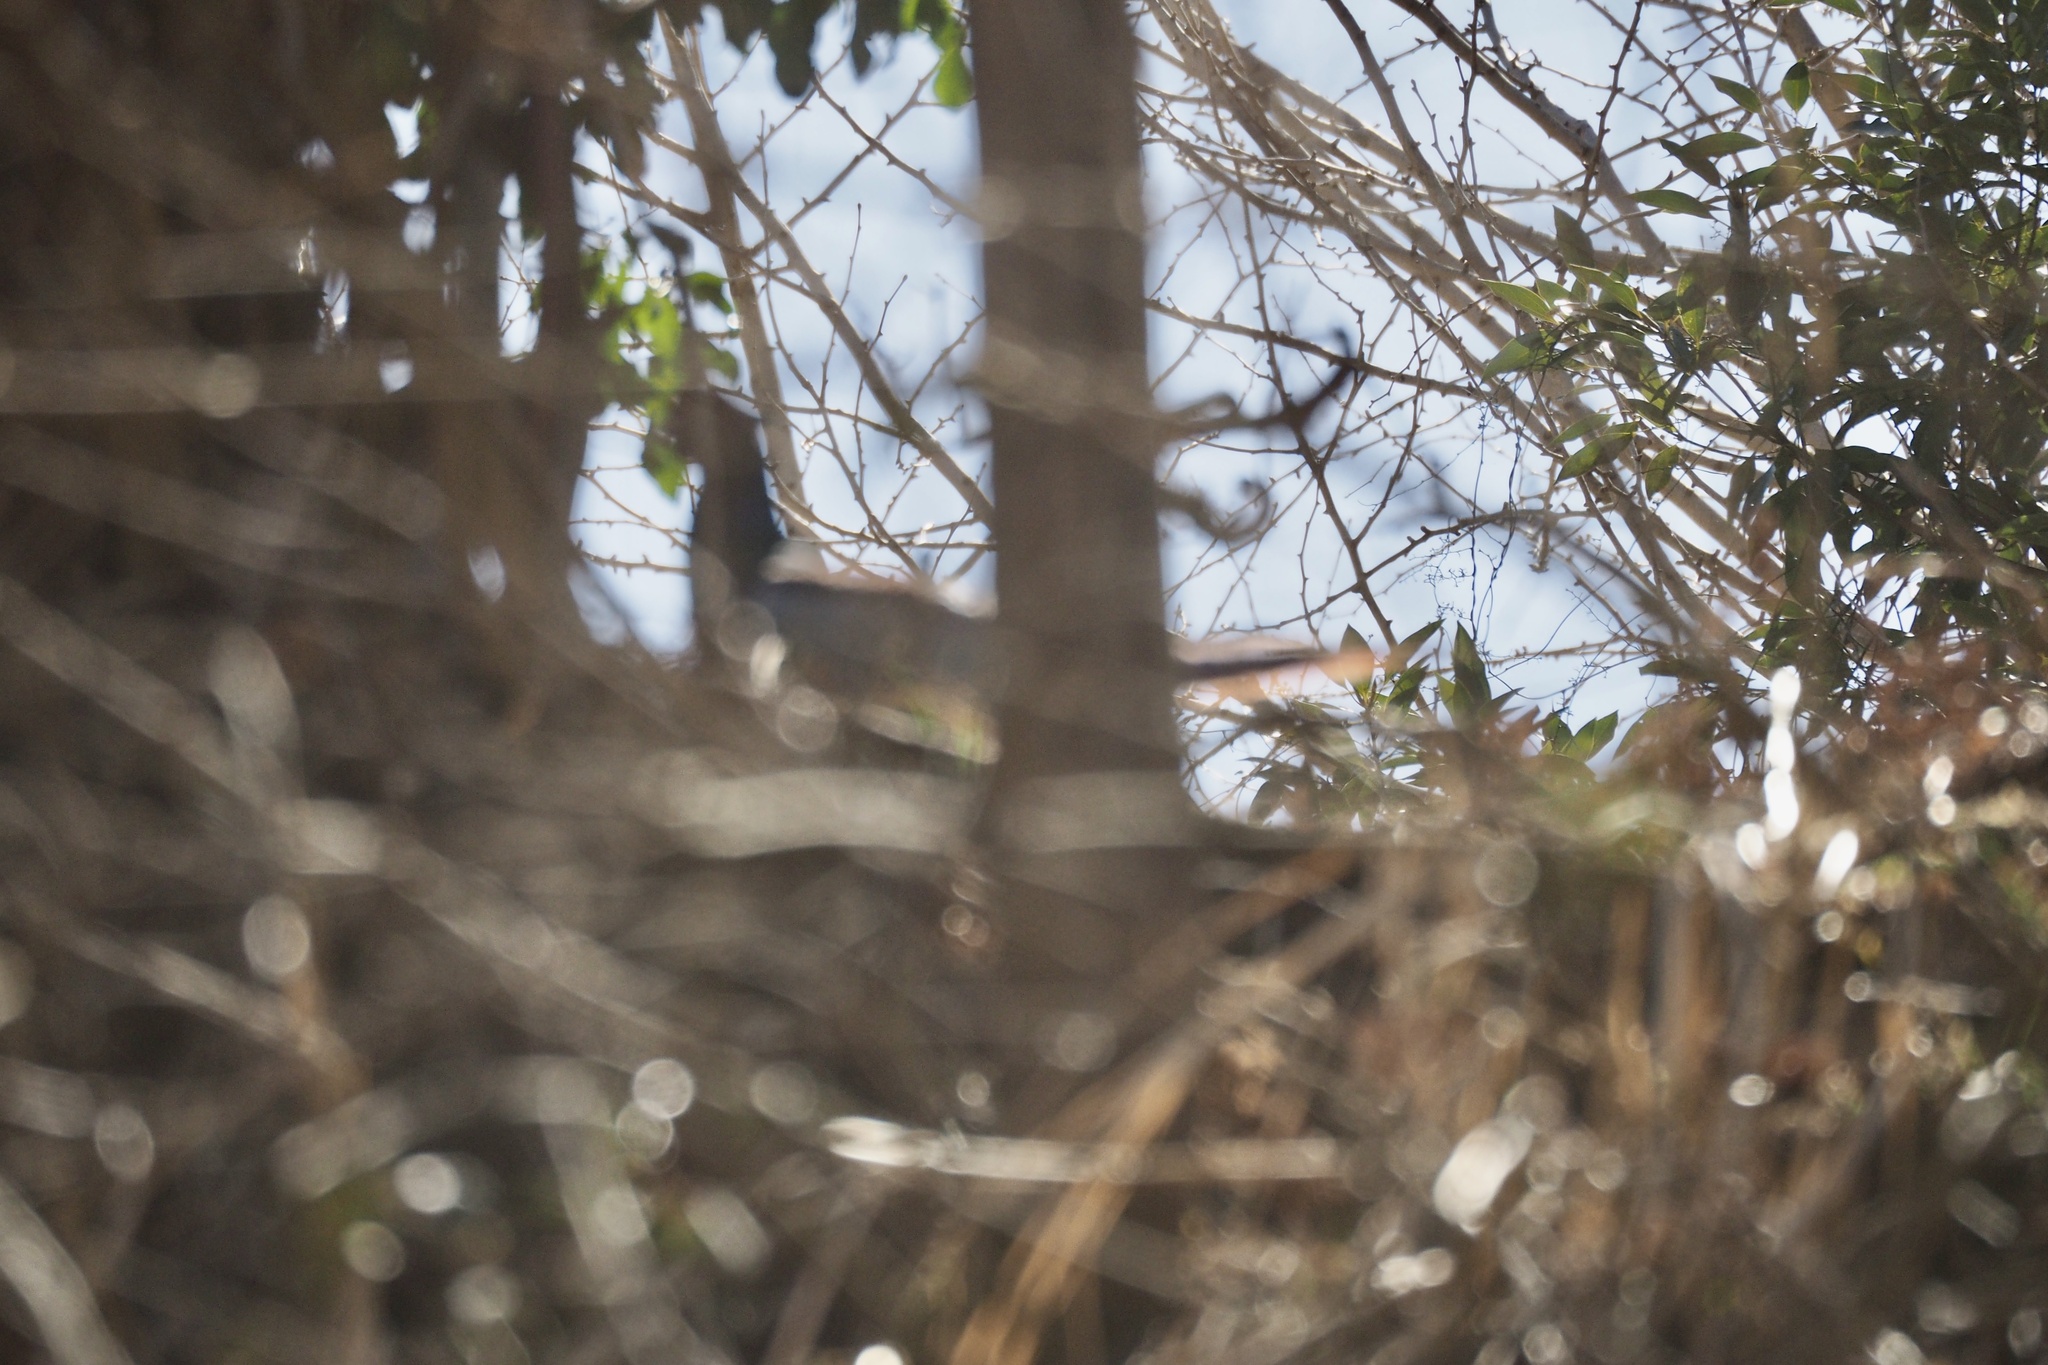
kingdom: Animalia
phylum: Chordata
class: Aves
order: Galliformes
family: Phasianidae
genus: Phasianus
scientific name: Phasianus versicolor
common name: Green pheasant
